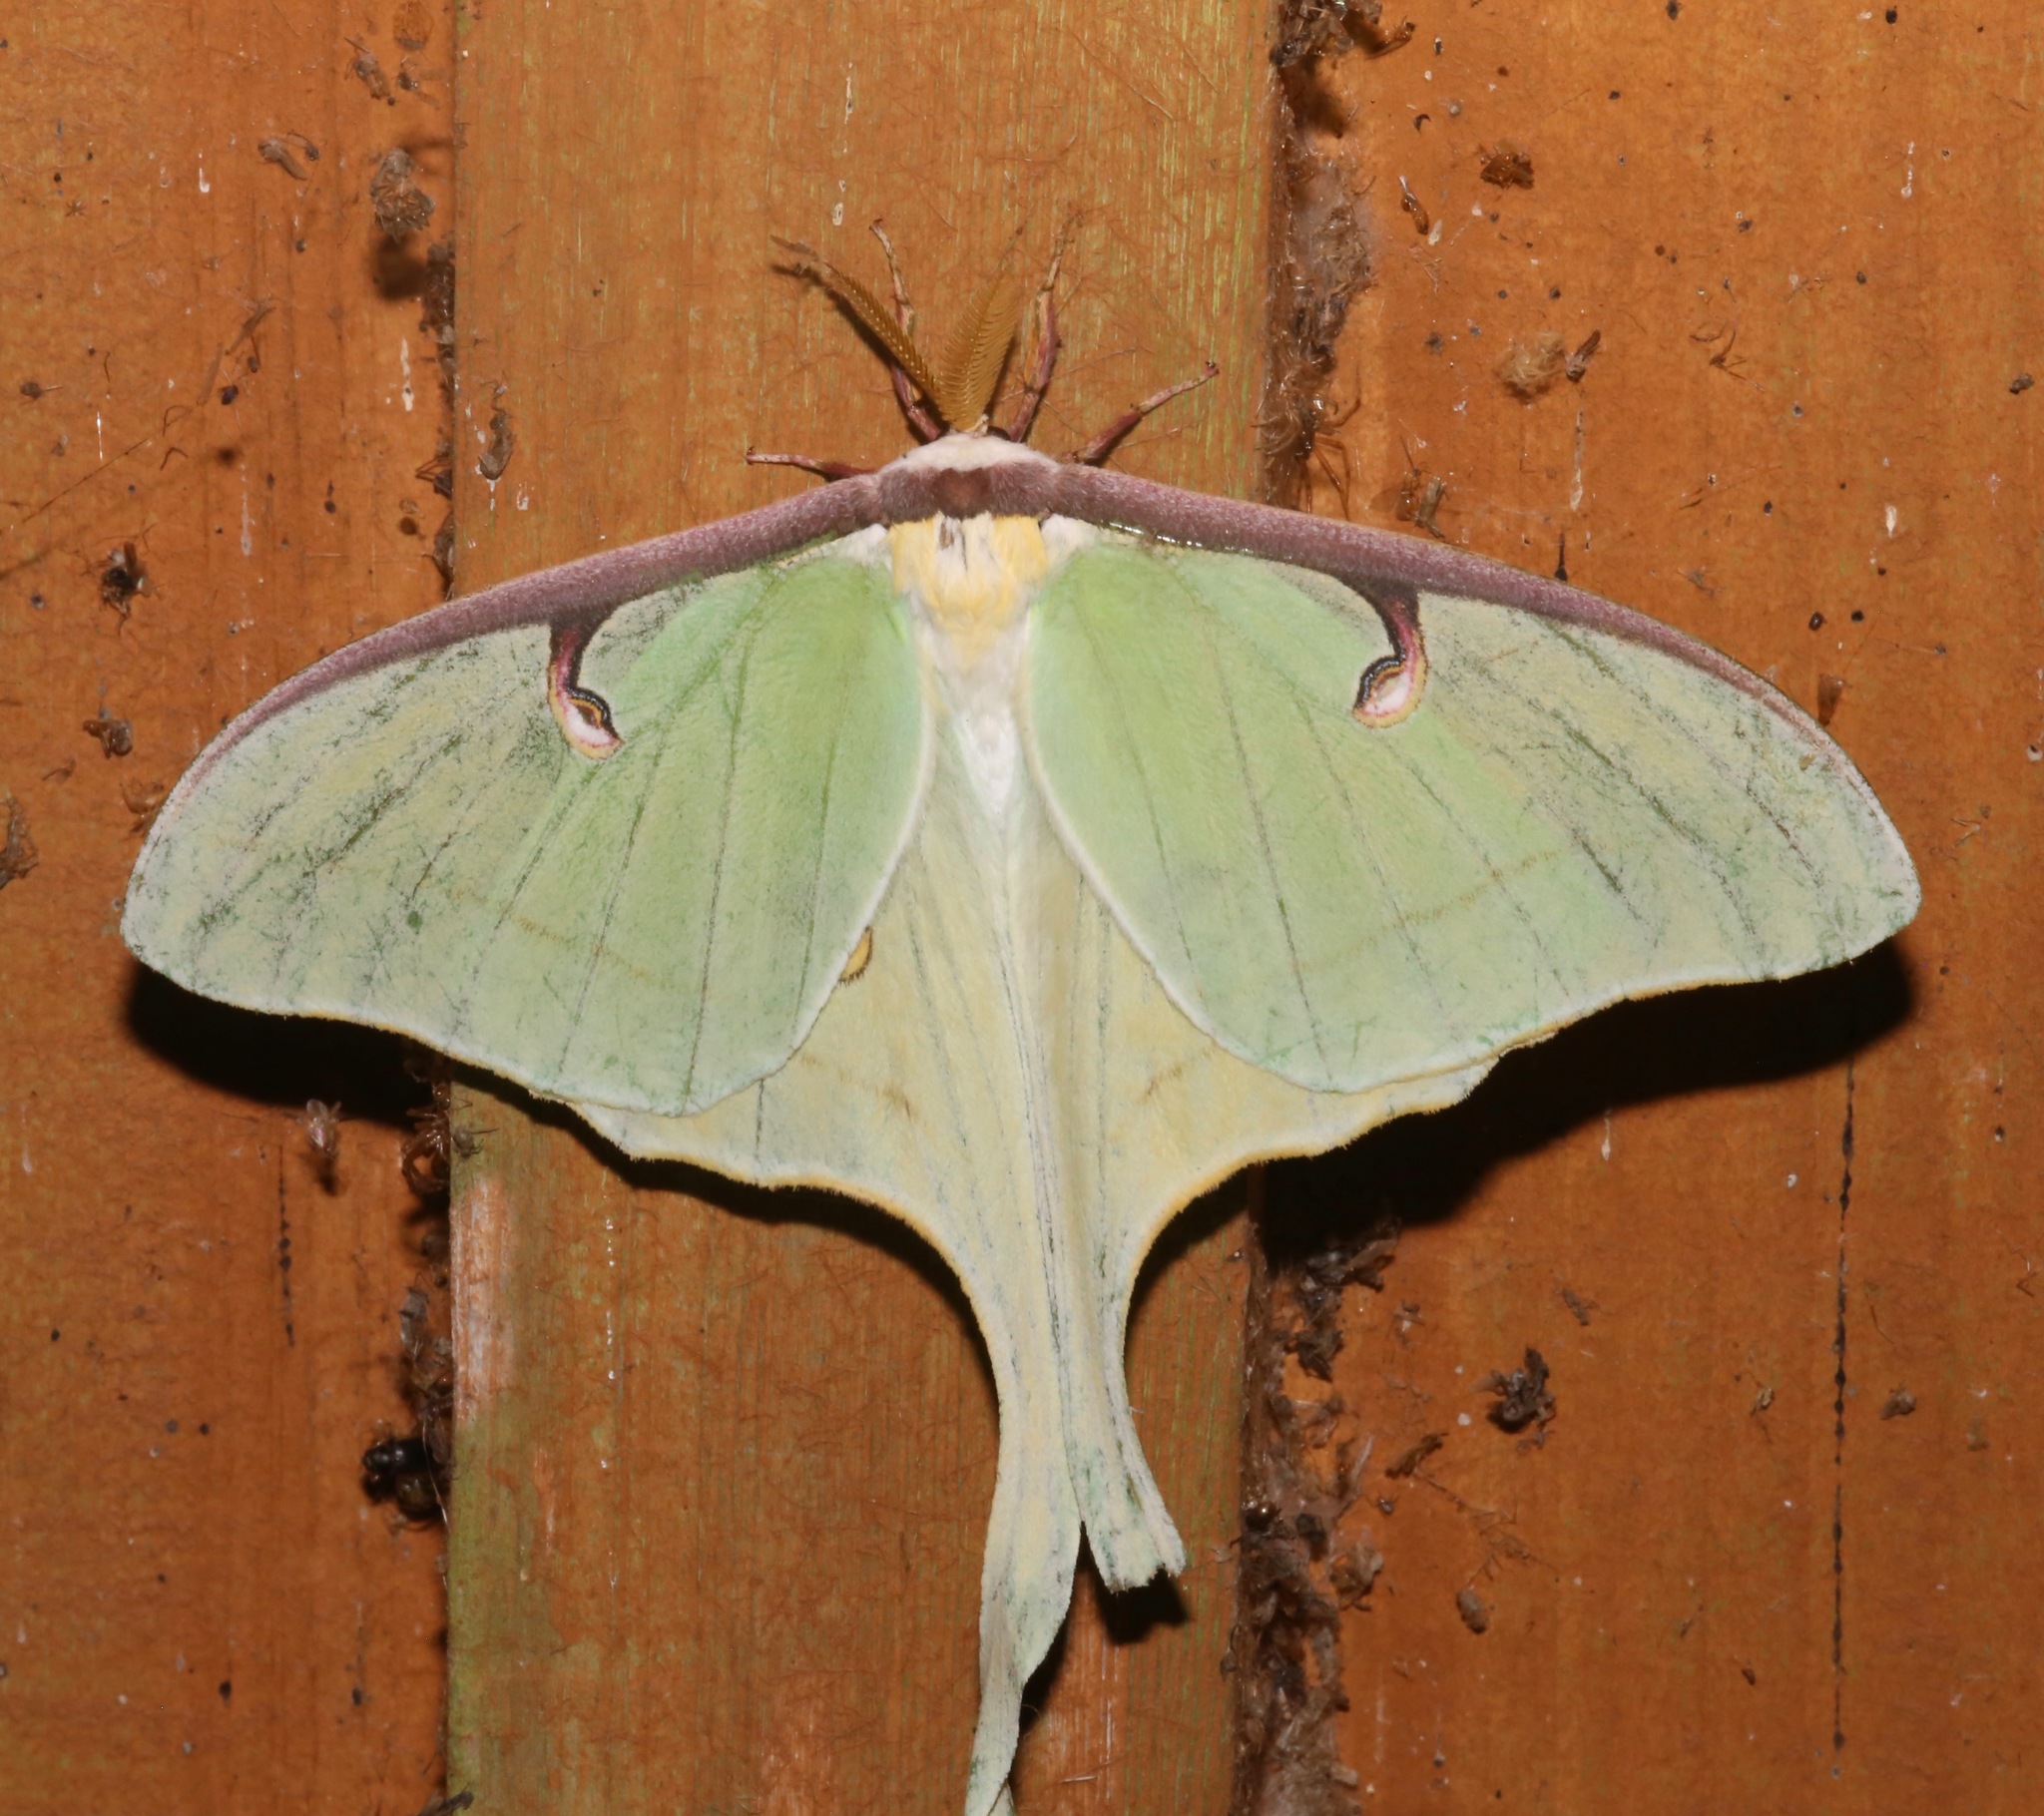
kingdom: Animalia
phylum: Arthropoda
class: Insecta
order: Lepidoptera
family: Saturniidae
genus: Actias
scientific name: Actias luna
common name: Luna moth
